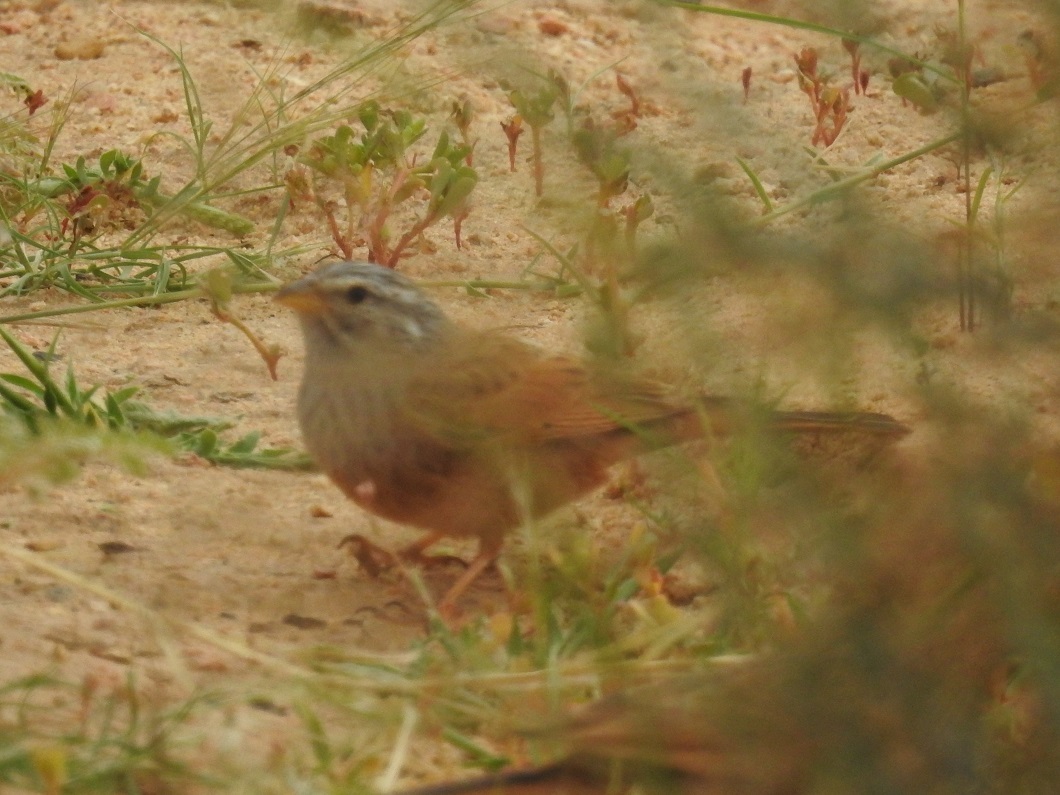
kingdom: Animalia
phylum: Chordata
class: Aves
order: Passeriformes
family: Emberizidae
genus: Emberiza
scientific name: Emberiza sahari
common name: House bunting
